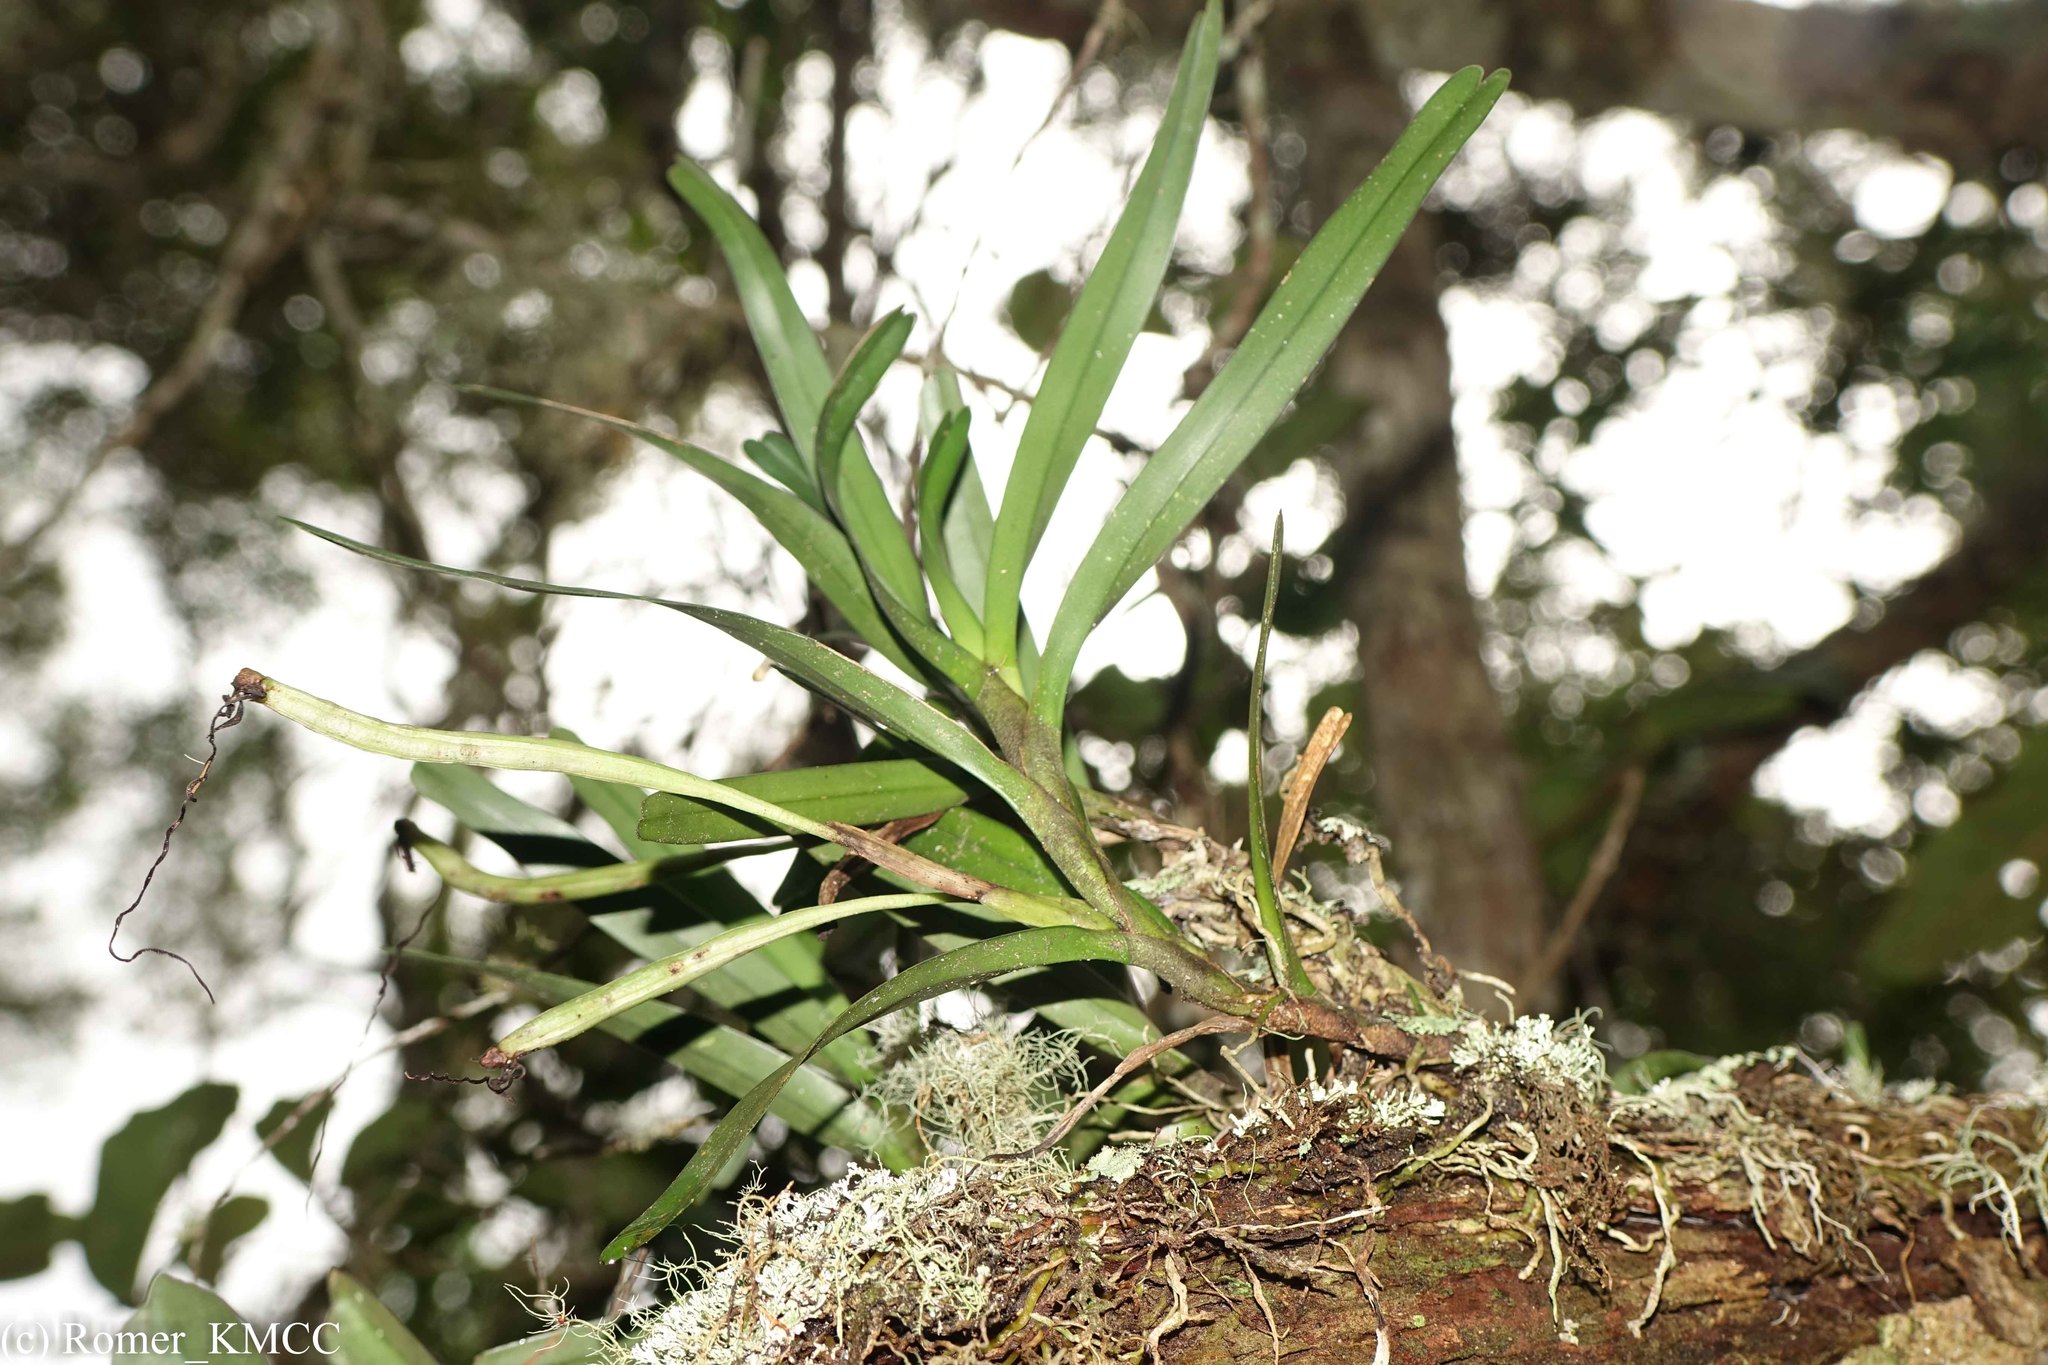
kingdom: Plantae
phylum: Tracheophyta
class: Liliopsida
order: Asparagales
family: Orchidaceae
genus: Jumellea
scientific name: Jumellea punctata
